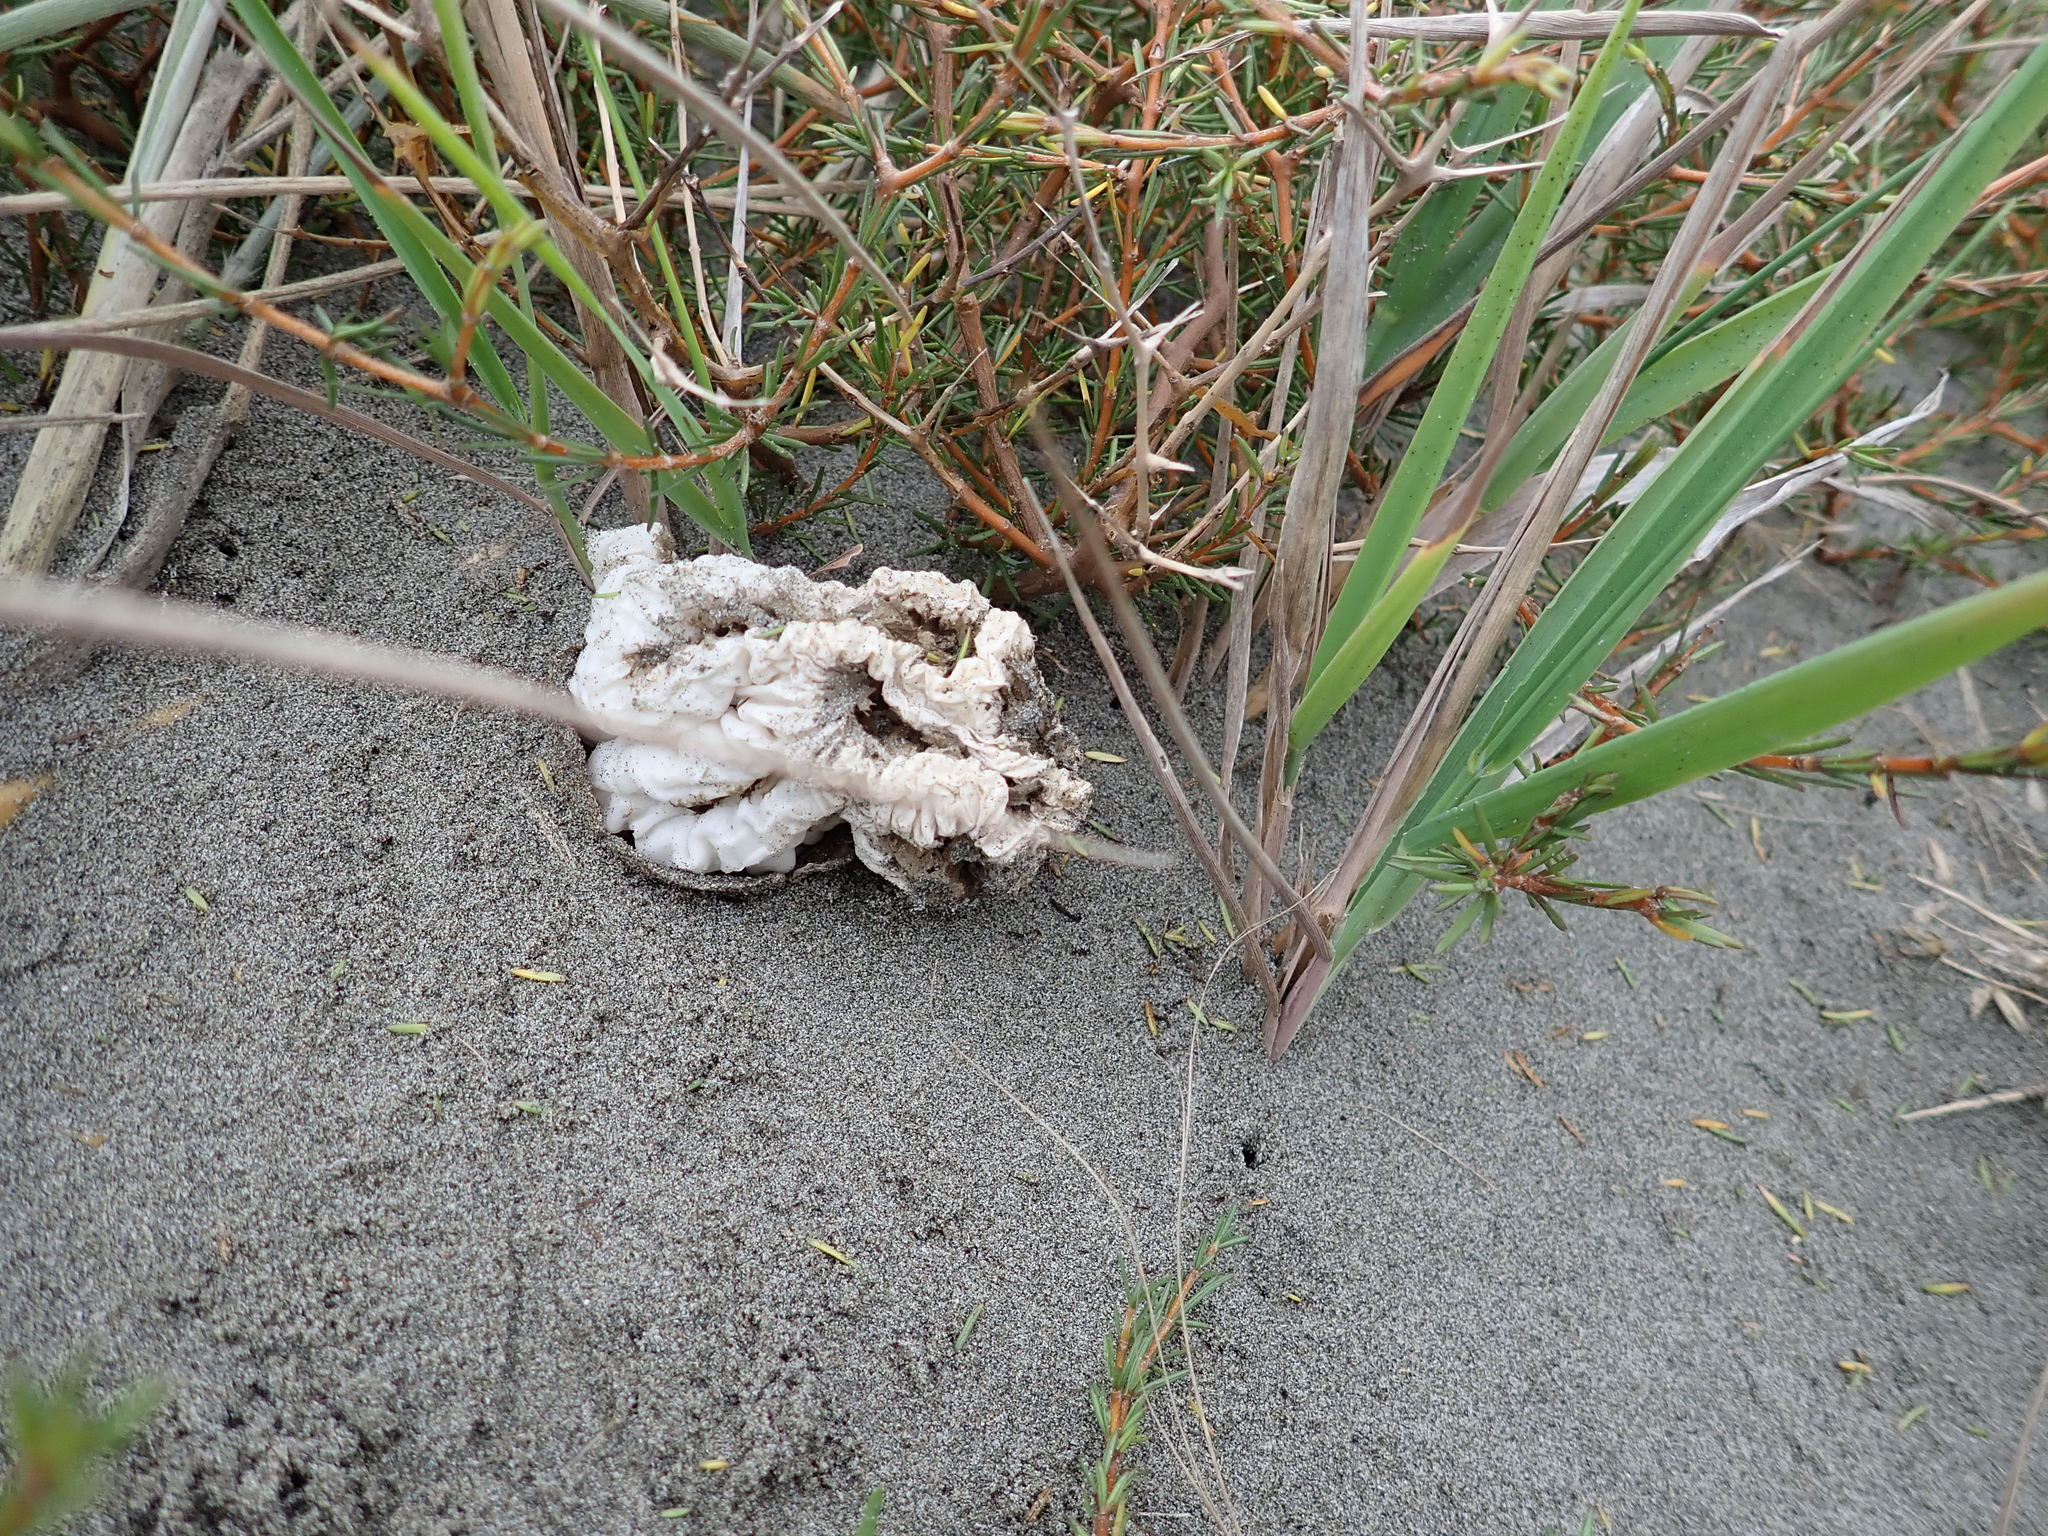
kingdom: Fungi
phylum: Basidiomycota
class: Agaricomycetes
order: Phallales
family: Phallaceae
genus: Ileodictyon
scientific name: Ileodictyon cibarium
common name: Basket fungus
